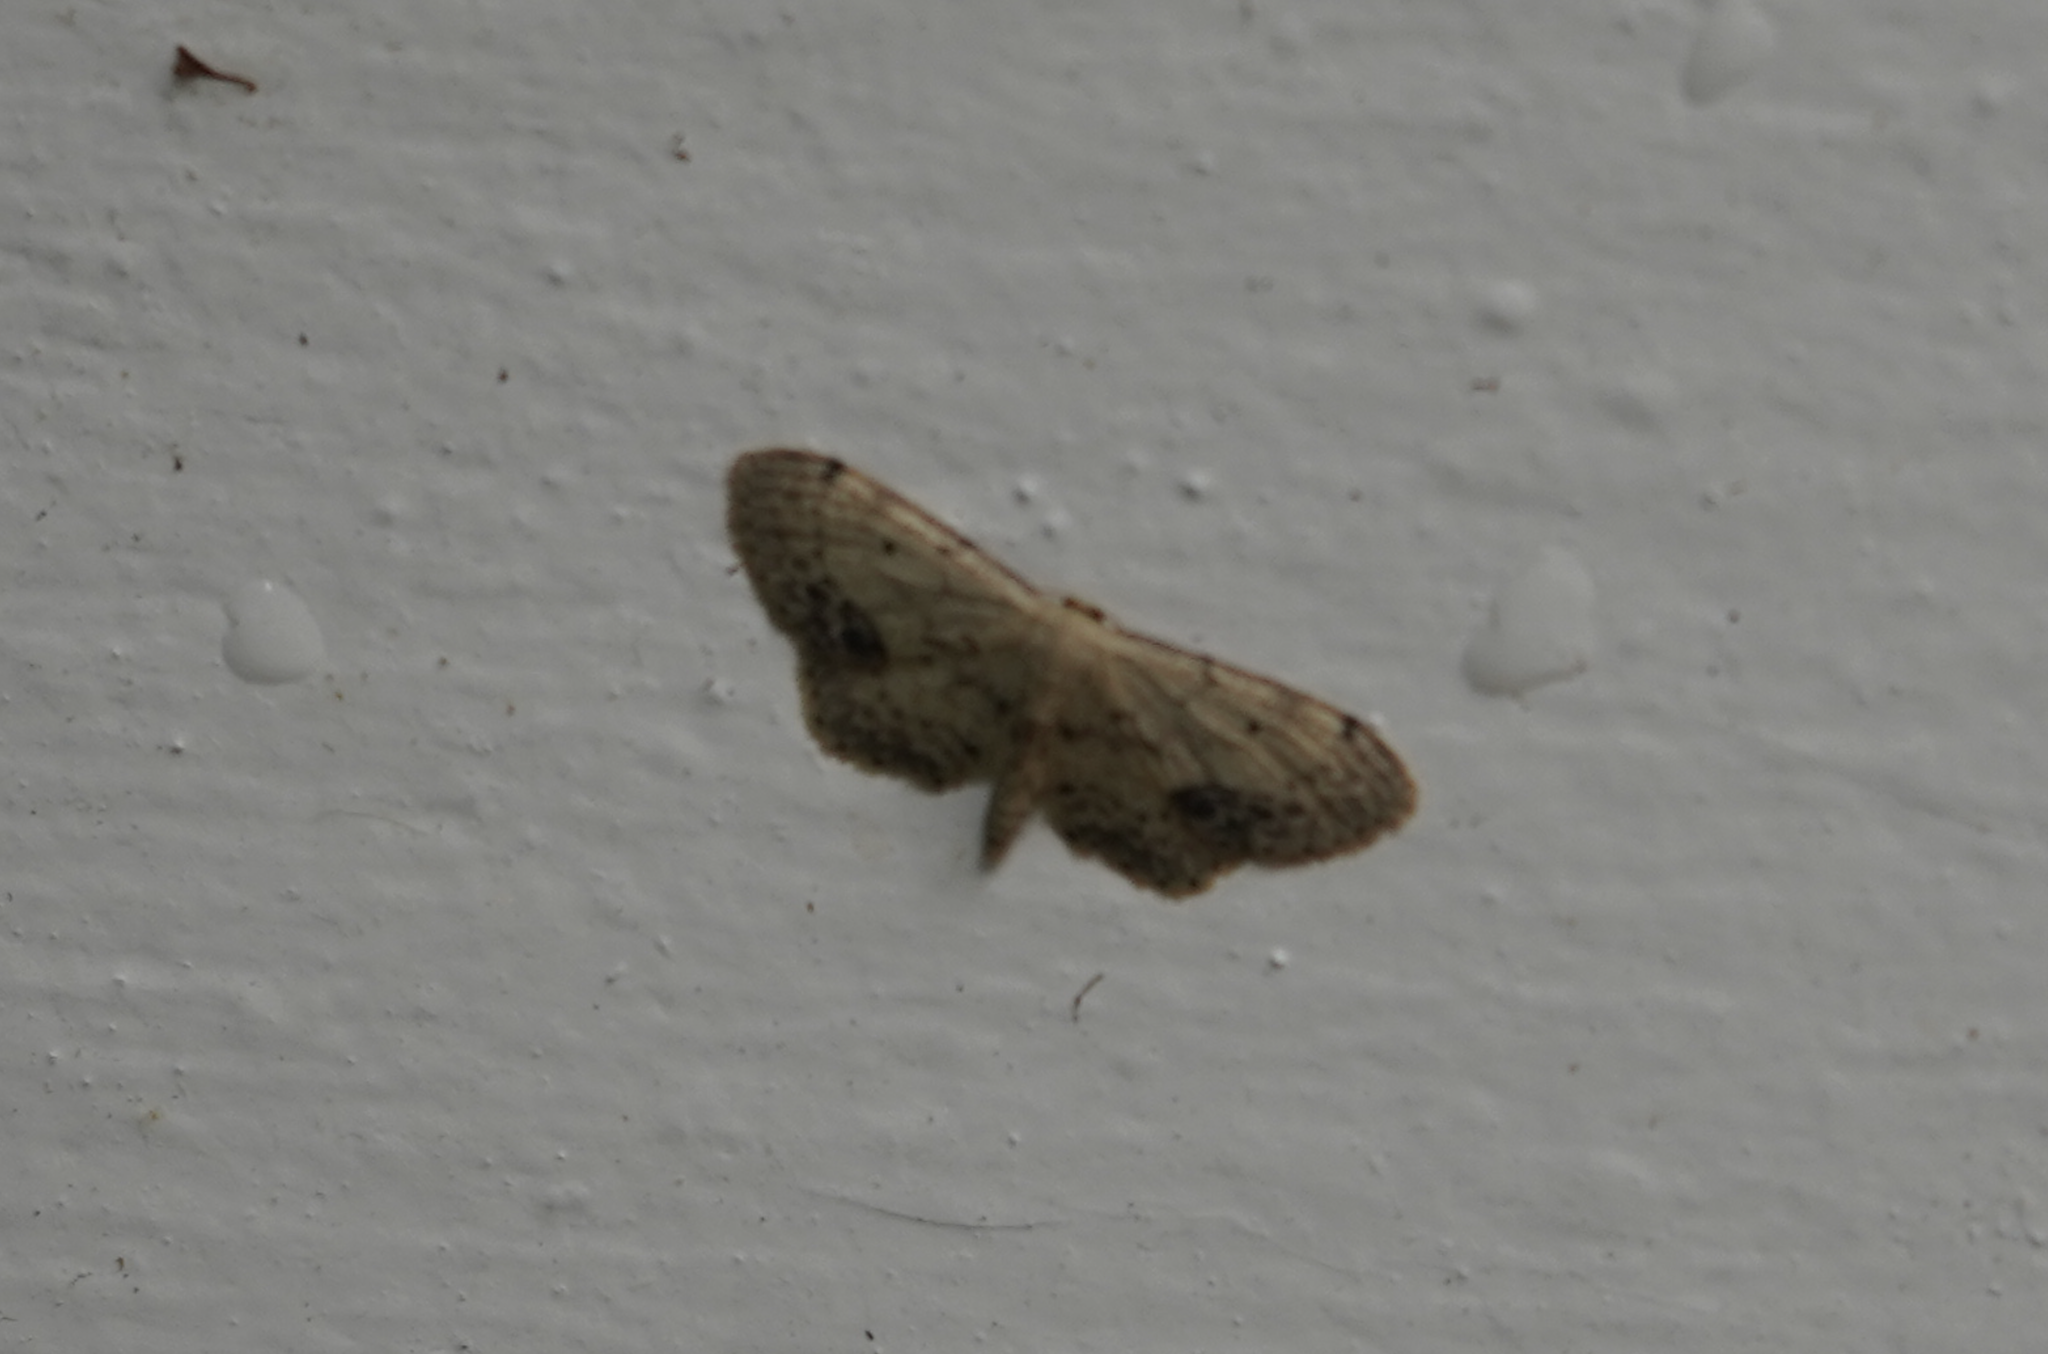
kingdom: Animalia
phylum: Arthropoda
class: Insecta
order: Lepidoptera
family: Geometridae
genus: Idaea
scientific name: Idaea dimidiata
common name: Single-dotted wave
